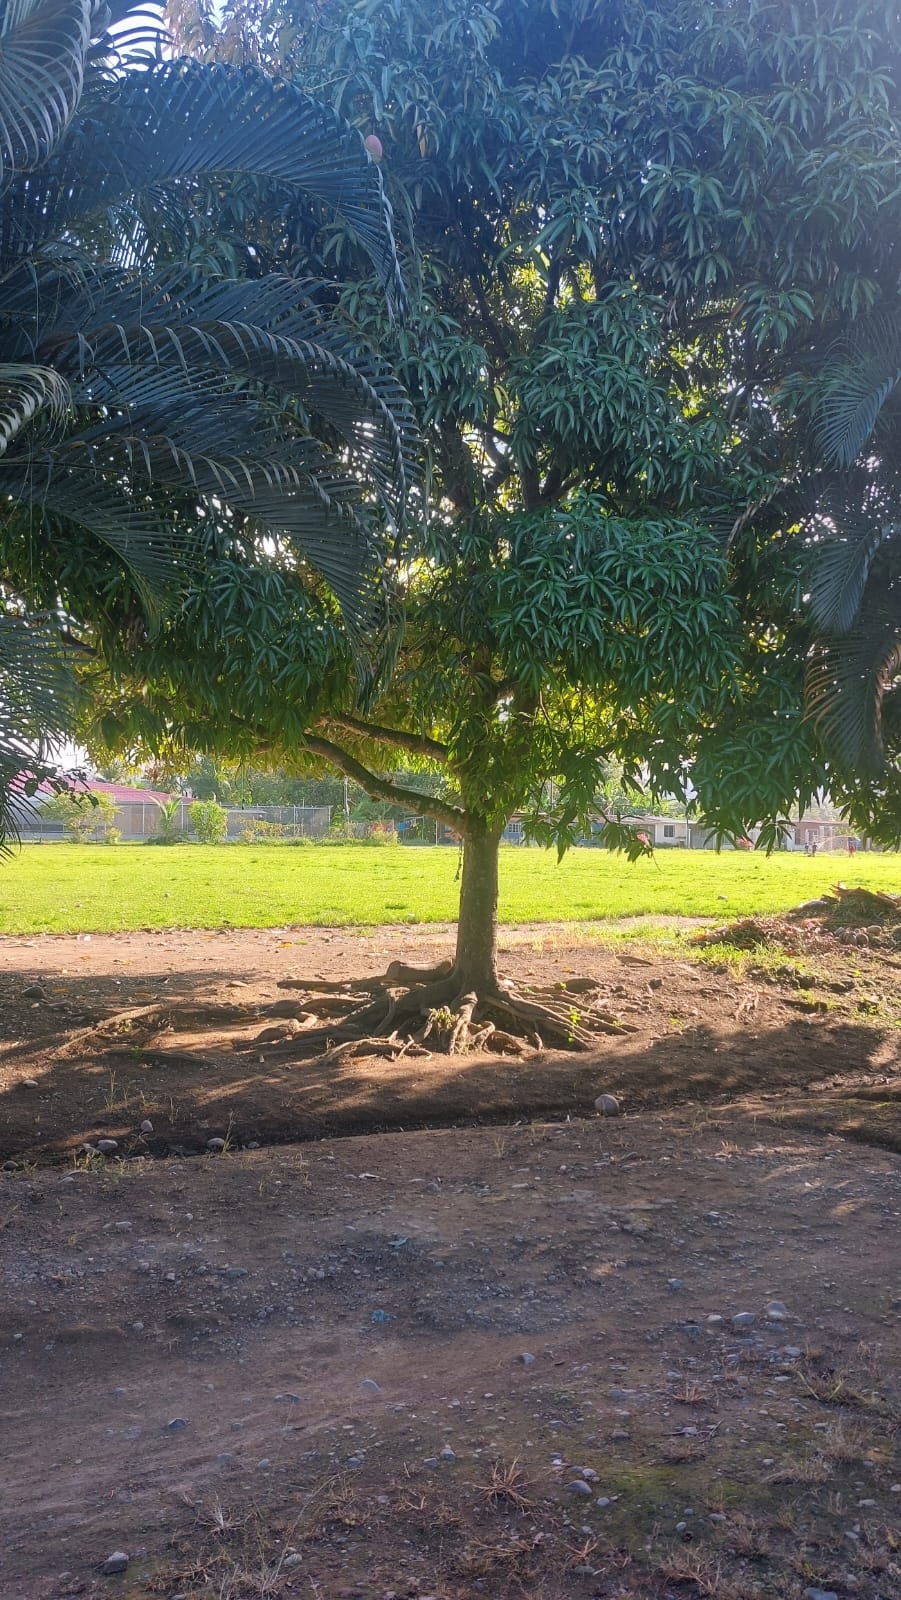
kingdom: Plantae
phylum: Tracheophyta
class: Magnoliopsida
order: Sapindales
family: Anacardiaceae
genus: Mangifera
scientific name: Mangifera indica
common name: Mango
